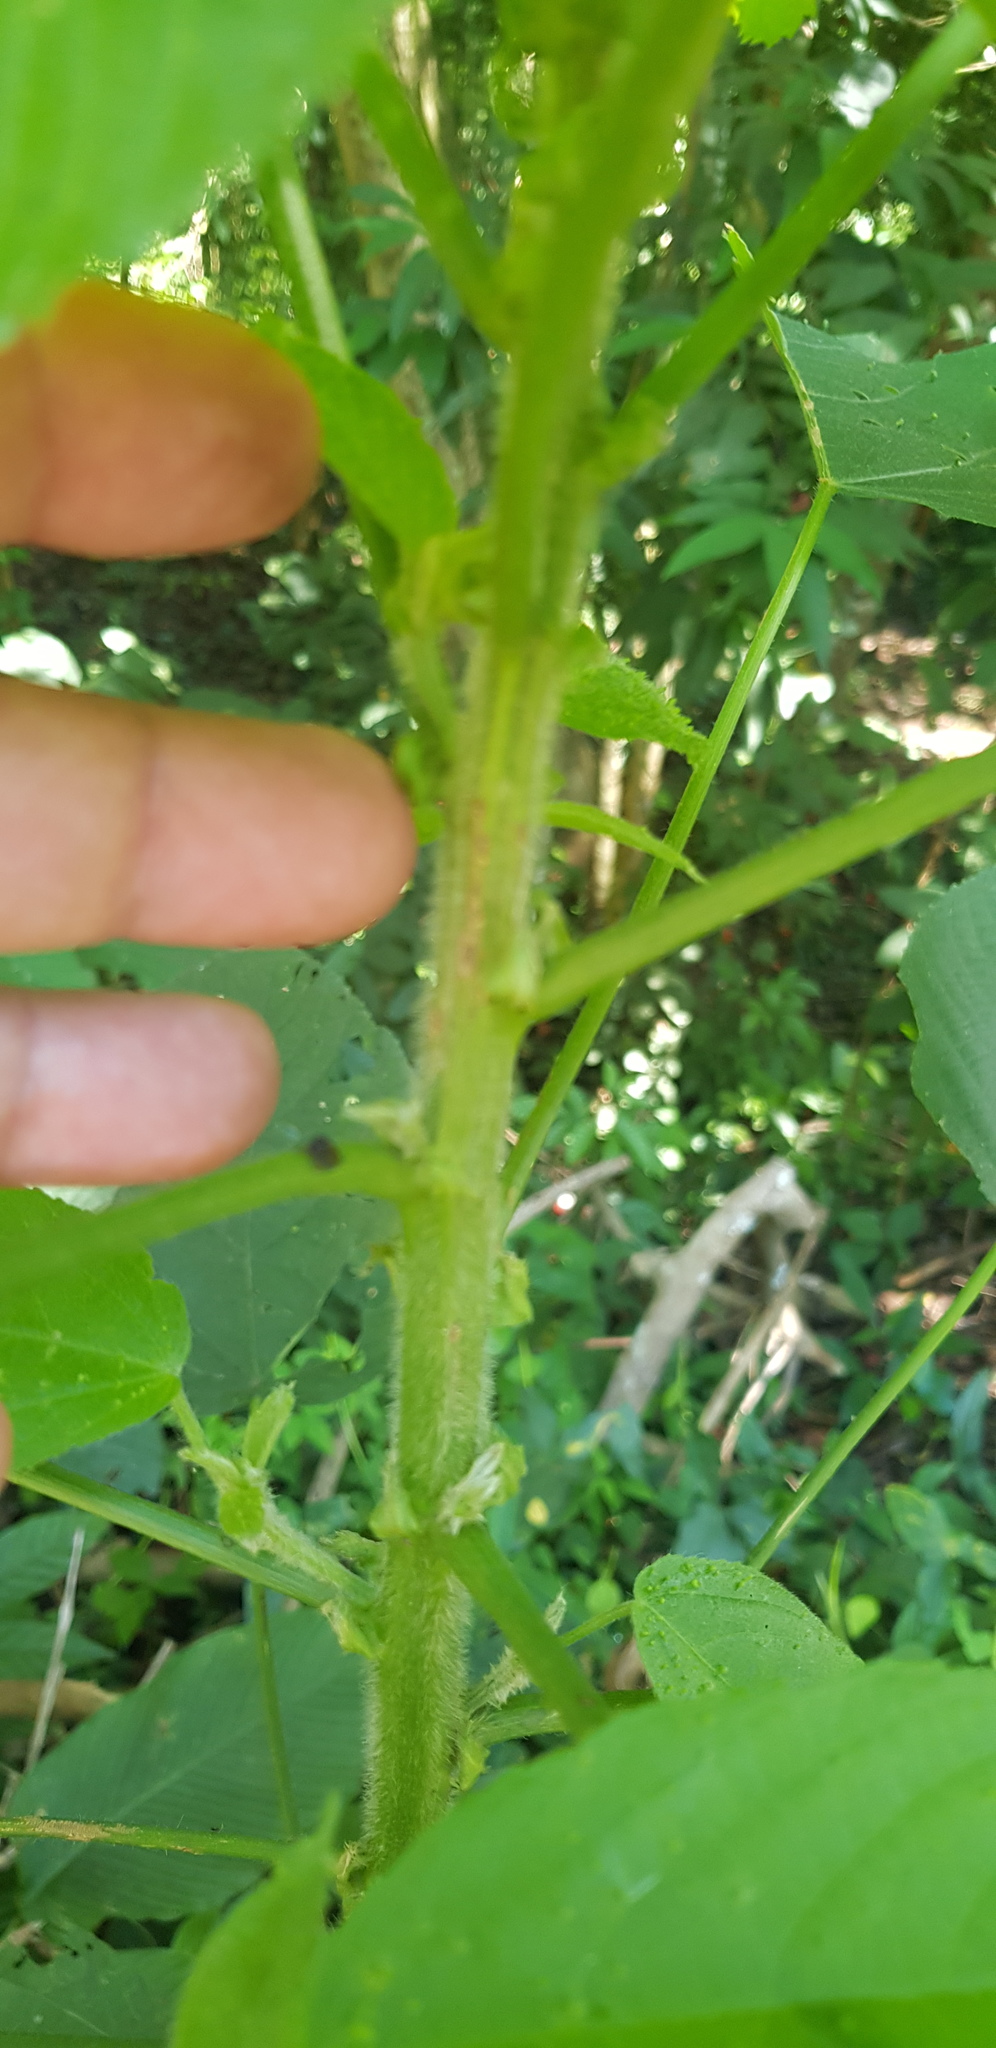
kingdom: Plantae
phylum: Tracheophyta
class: Magnoliopsida
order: Rosales
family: Urticaceae
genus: Urera
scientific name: Urera caracasana
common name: Flameberry
